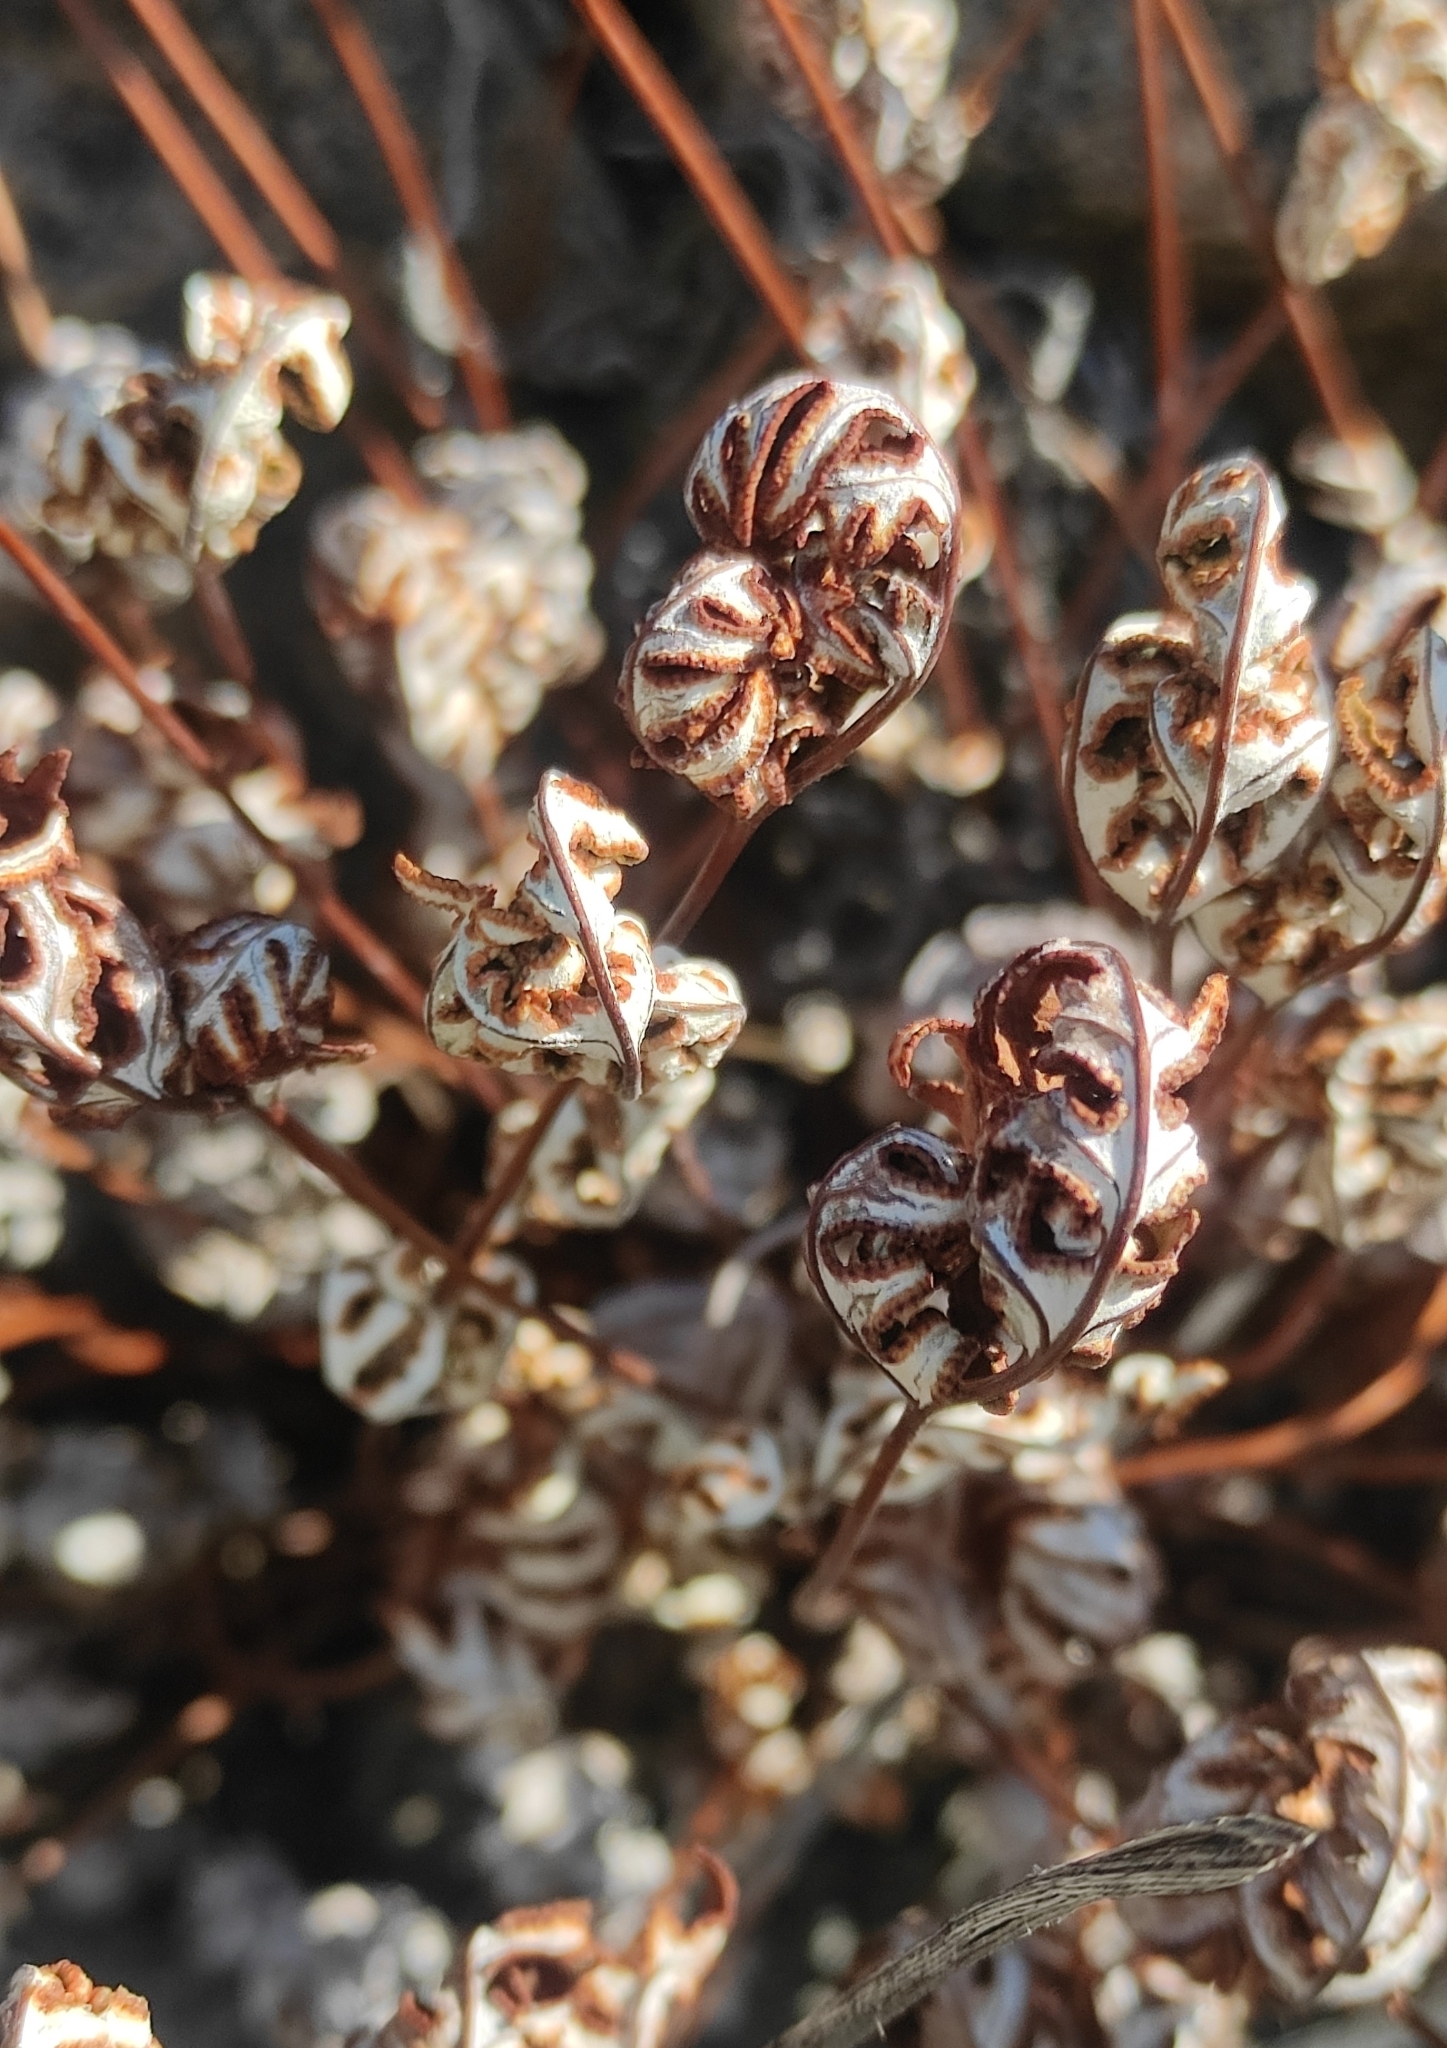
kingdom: Plantae
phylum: Tracheophyta
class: Polypodiopsida
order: Polypodiales
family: Pteridaceae
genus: Aleuritopteris
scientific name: Aleuritopteris argentea
